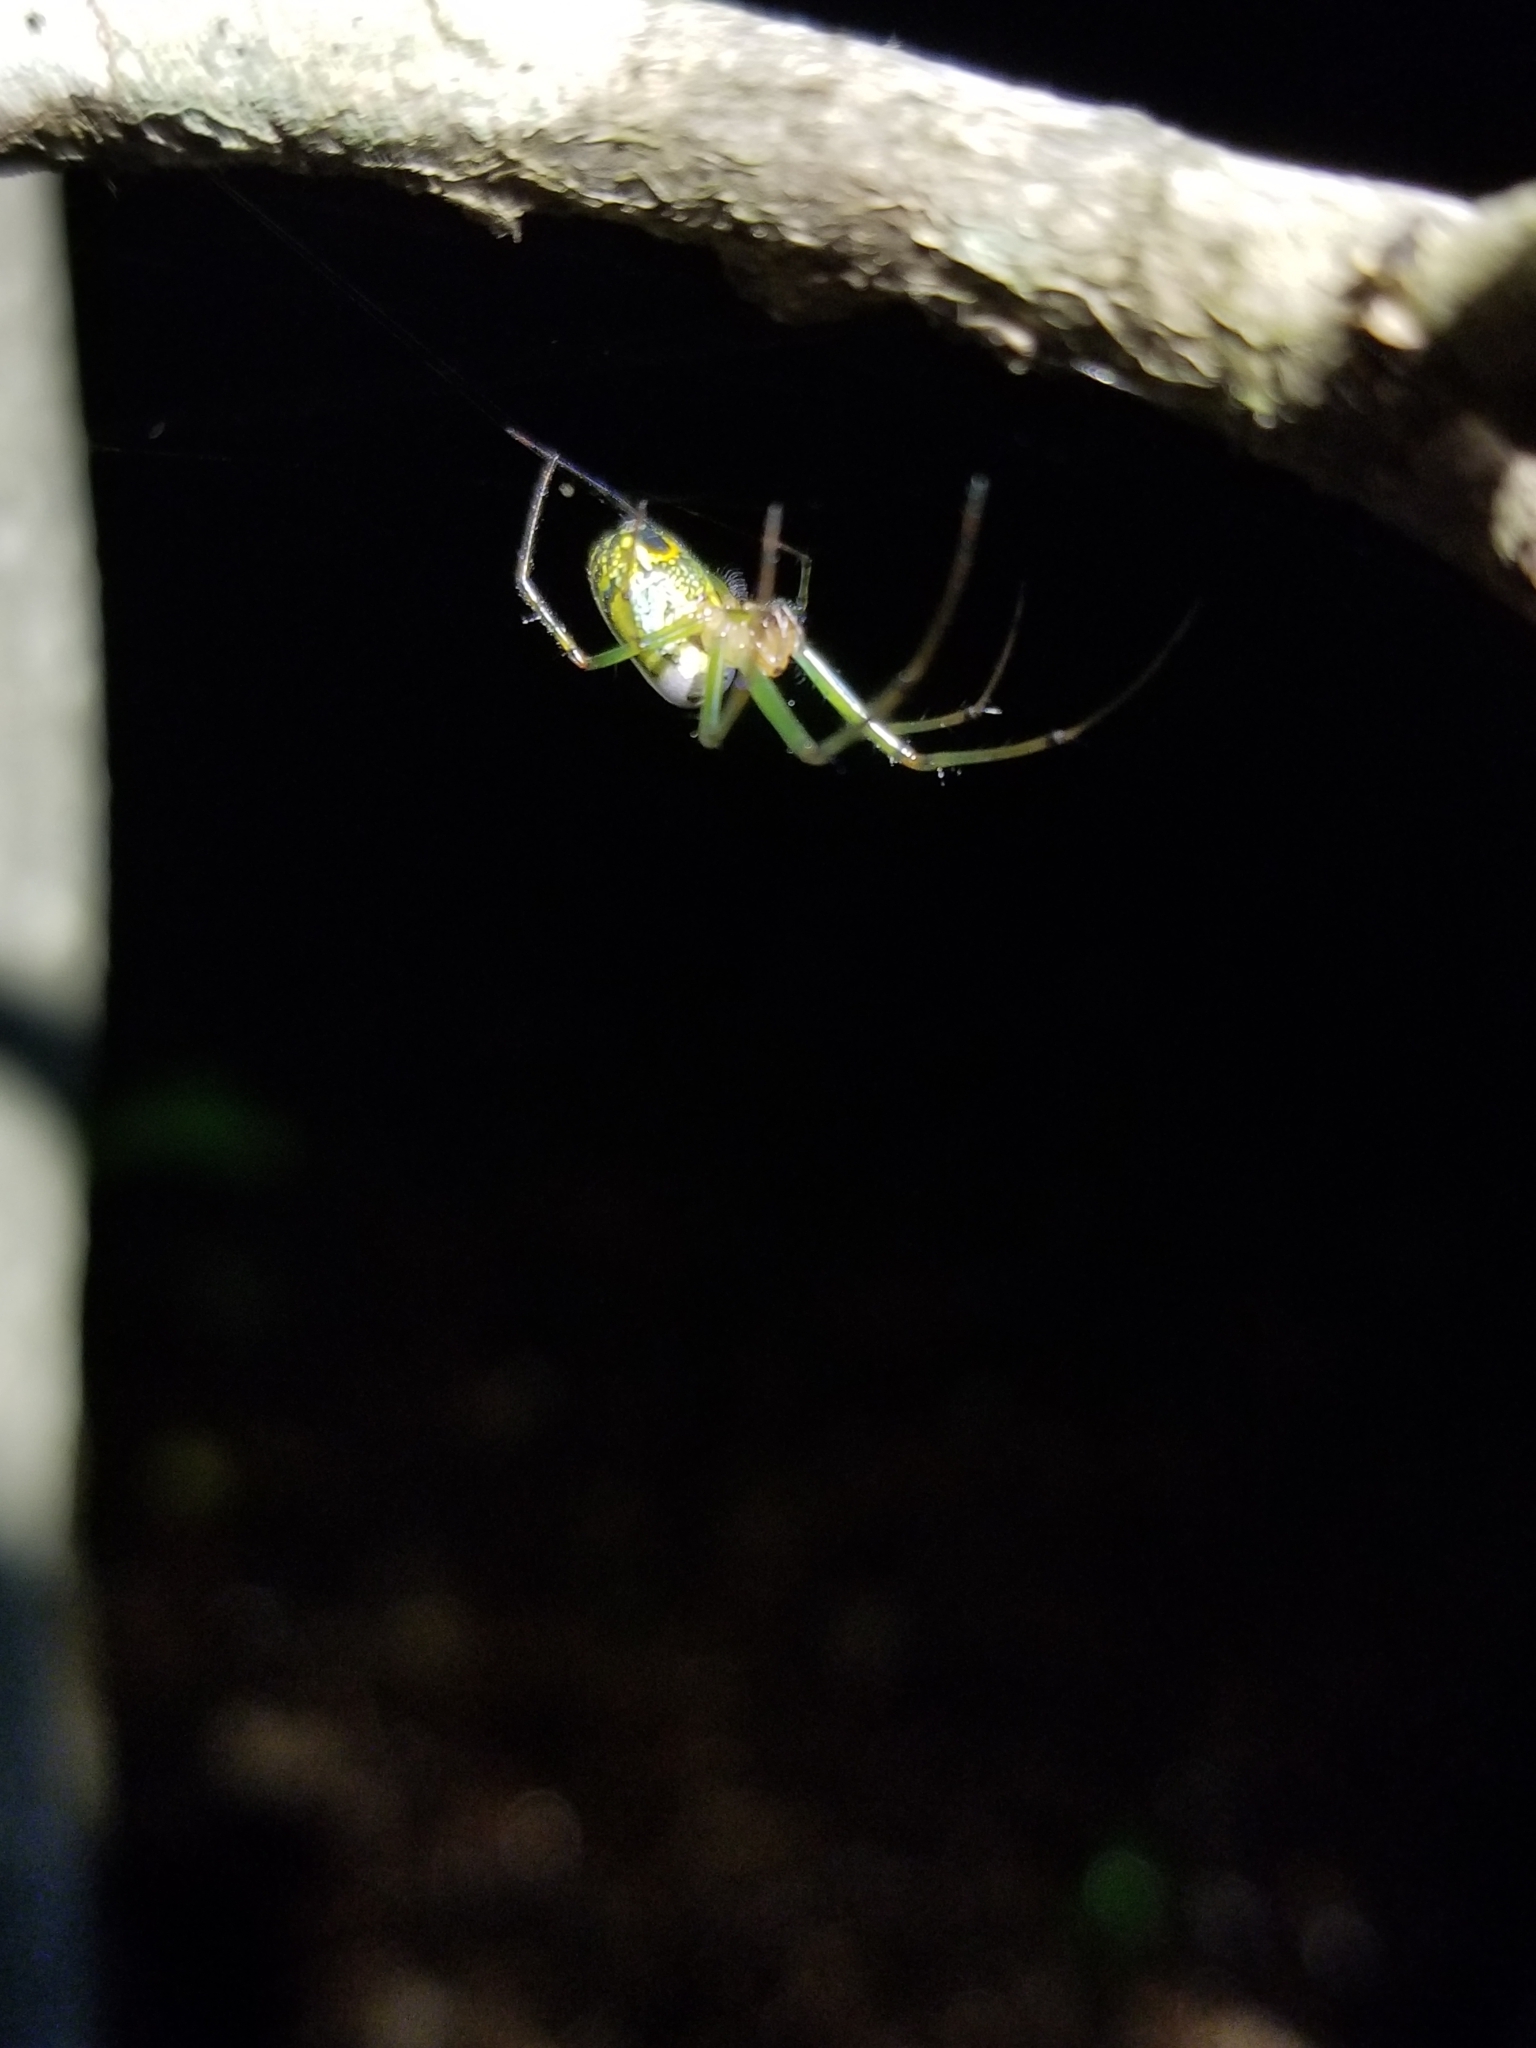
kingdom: Animalia
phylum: Arthropoda
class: Arachnida
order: Araneae
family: Tetragnathidae
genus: Leucauge
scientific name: Leucauge venusta
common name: Longjawed orb weavers
